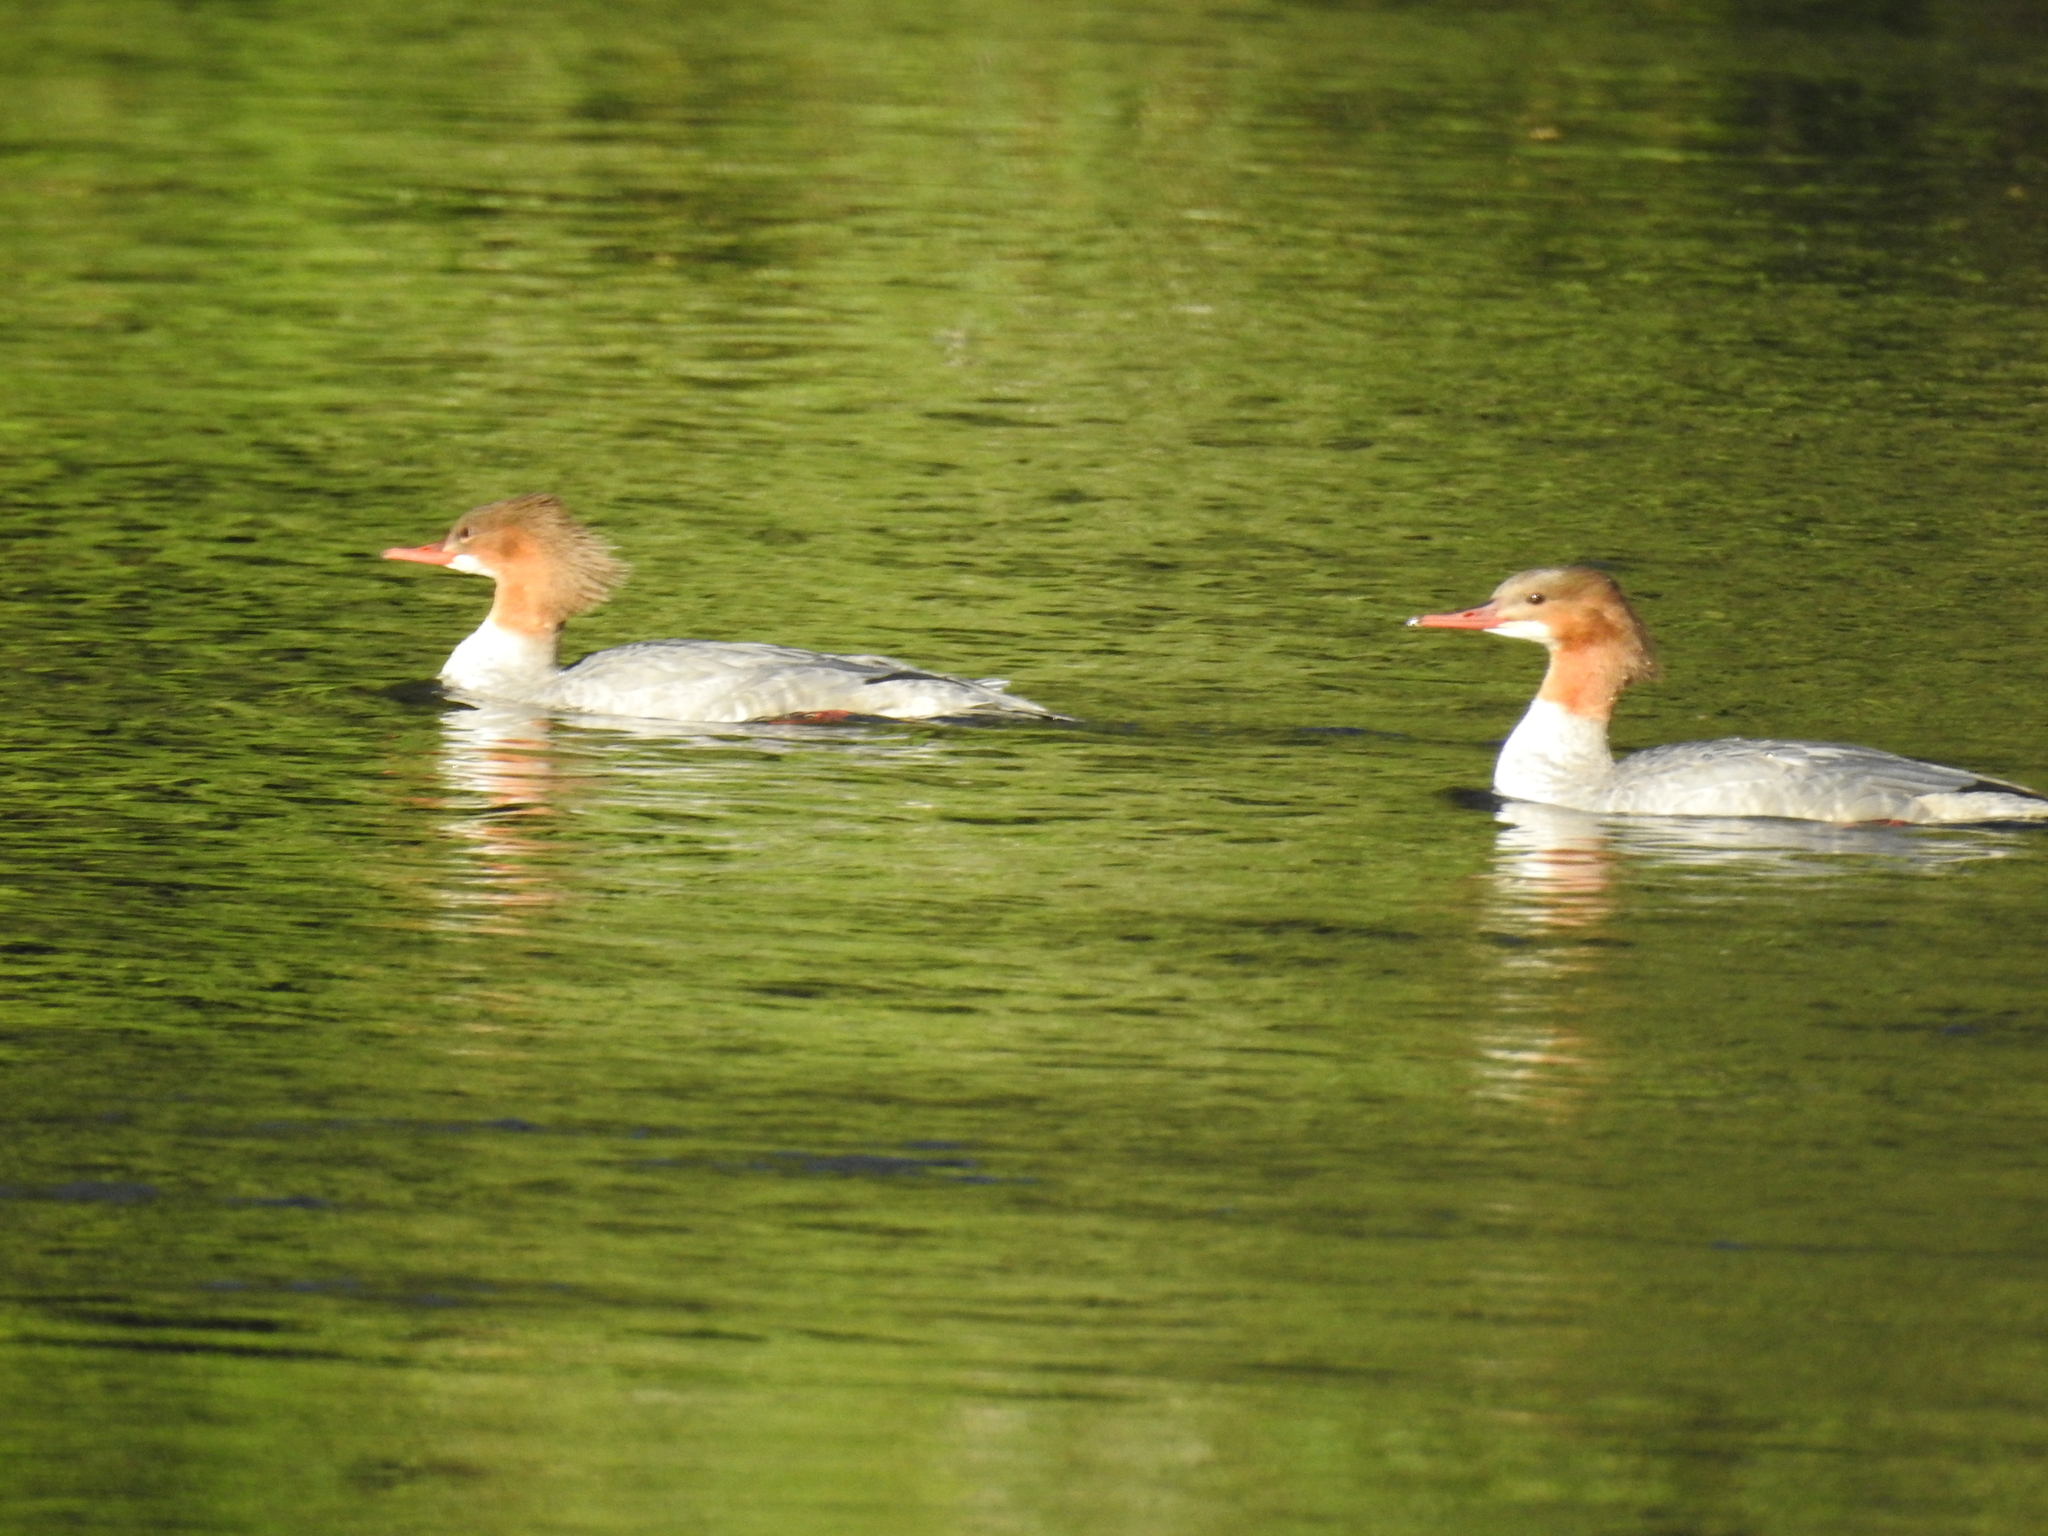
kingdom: Animalia
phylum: Chordata
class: Aves
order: Anseriformes
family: Anatidae
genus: Mergus
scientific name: Mergus merganser
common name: Common merganser
